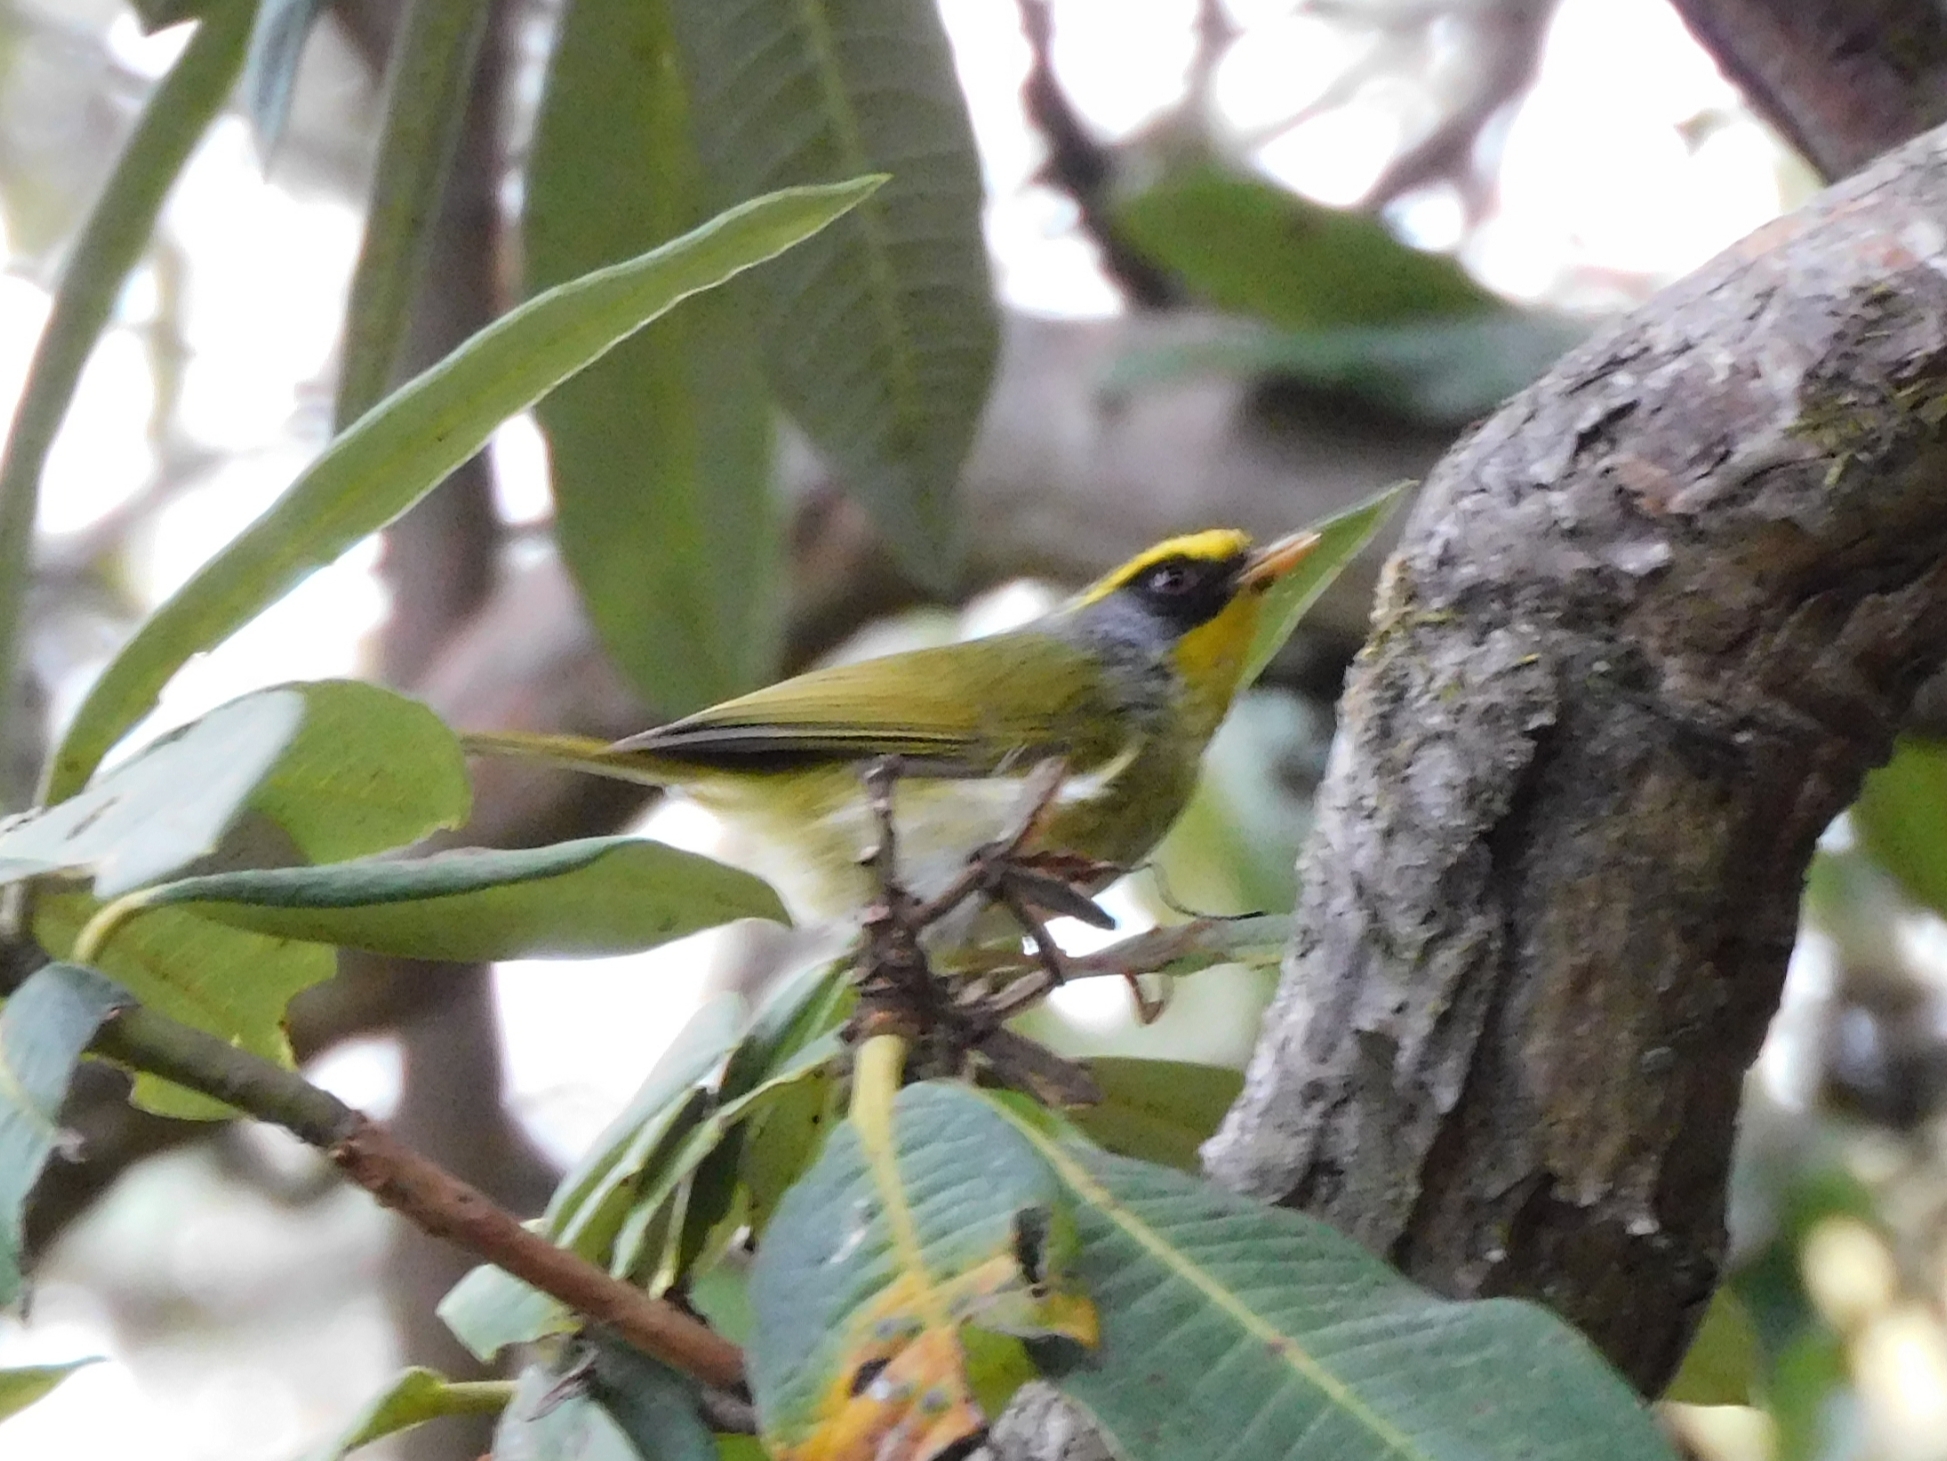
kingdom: Animalia
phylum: Chordata
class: Aves
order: Passeriformes
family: Cettiidae
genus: Abroscopus
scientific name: Abroscopus schisticeps
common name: Black-faced warbler
